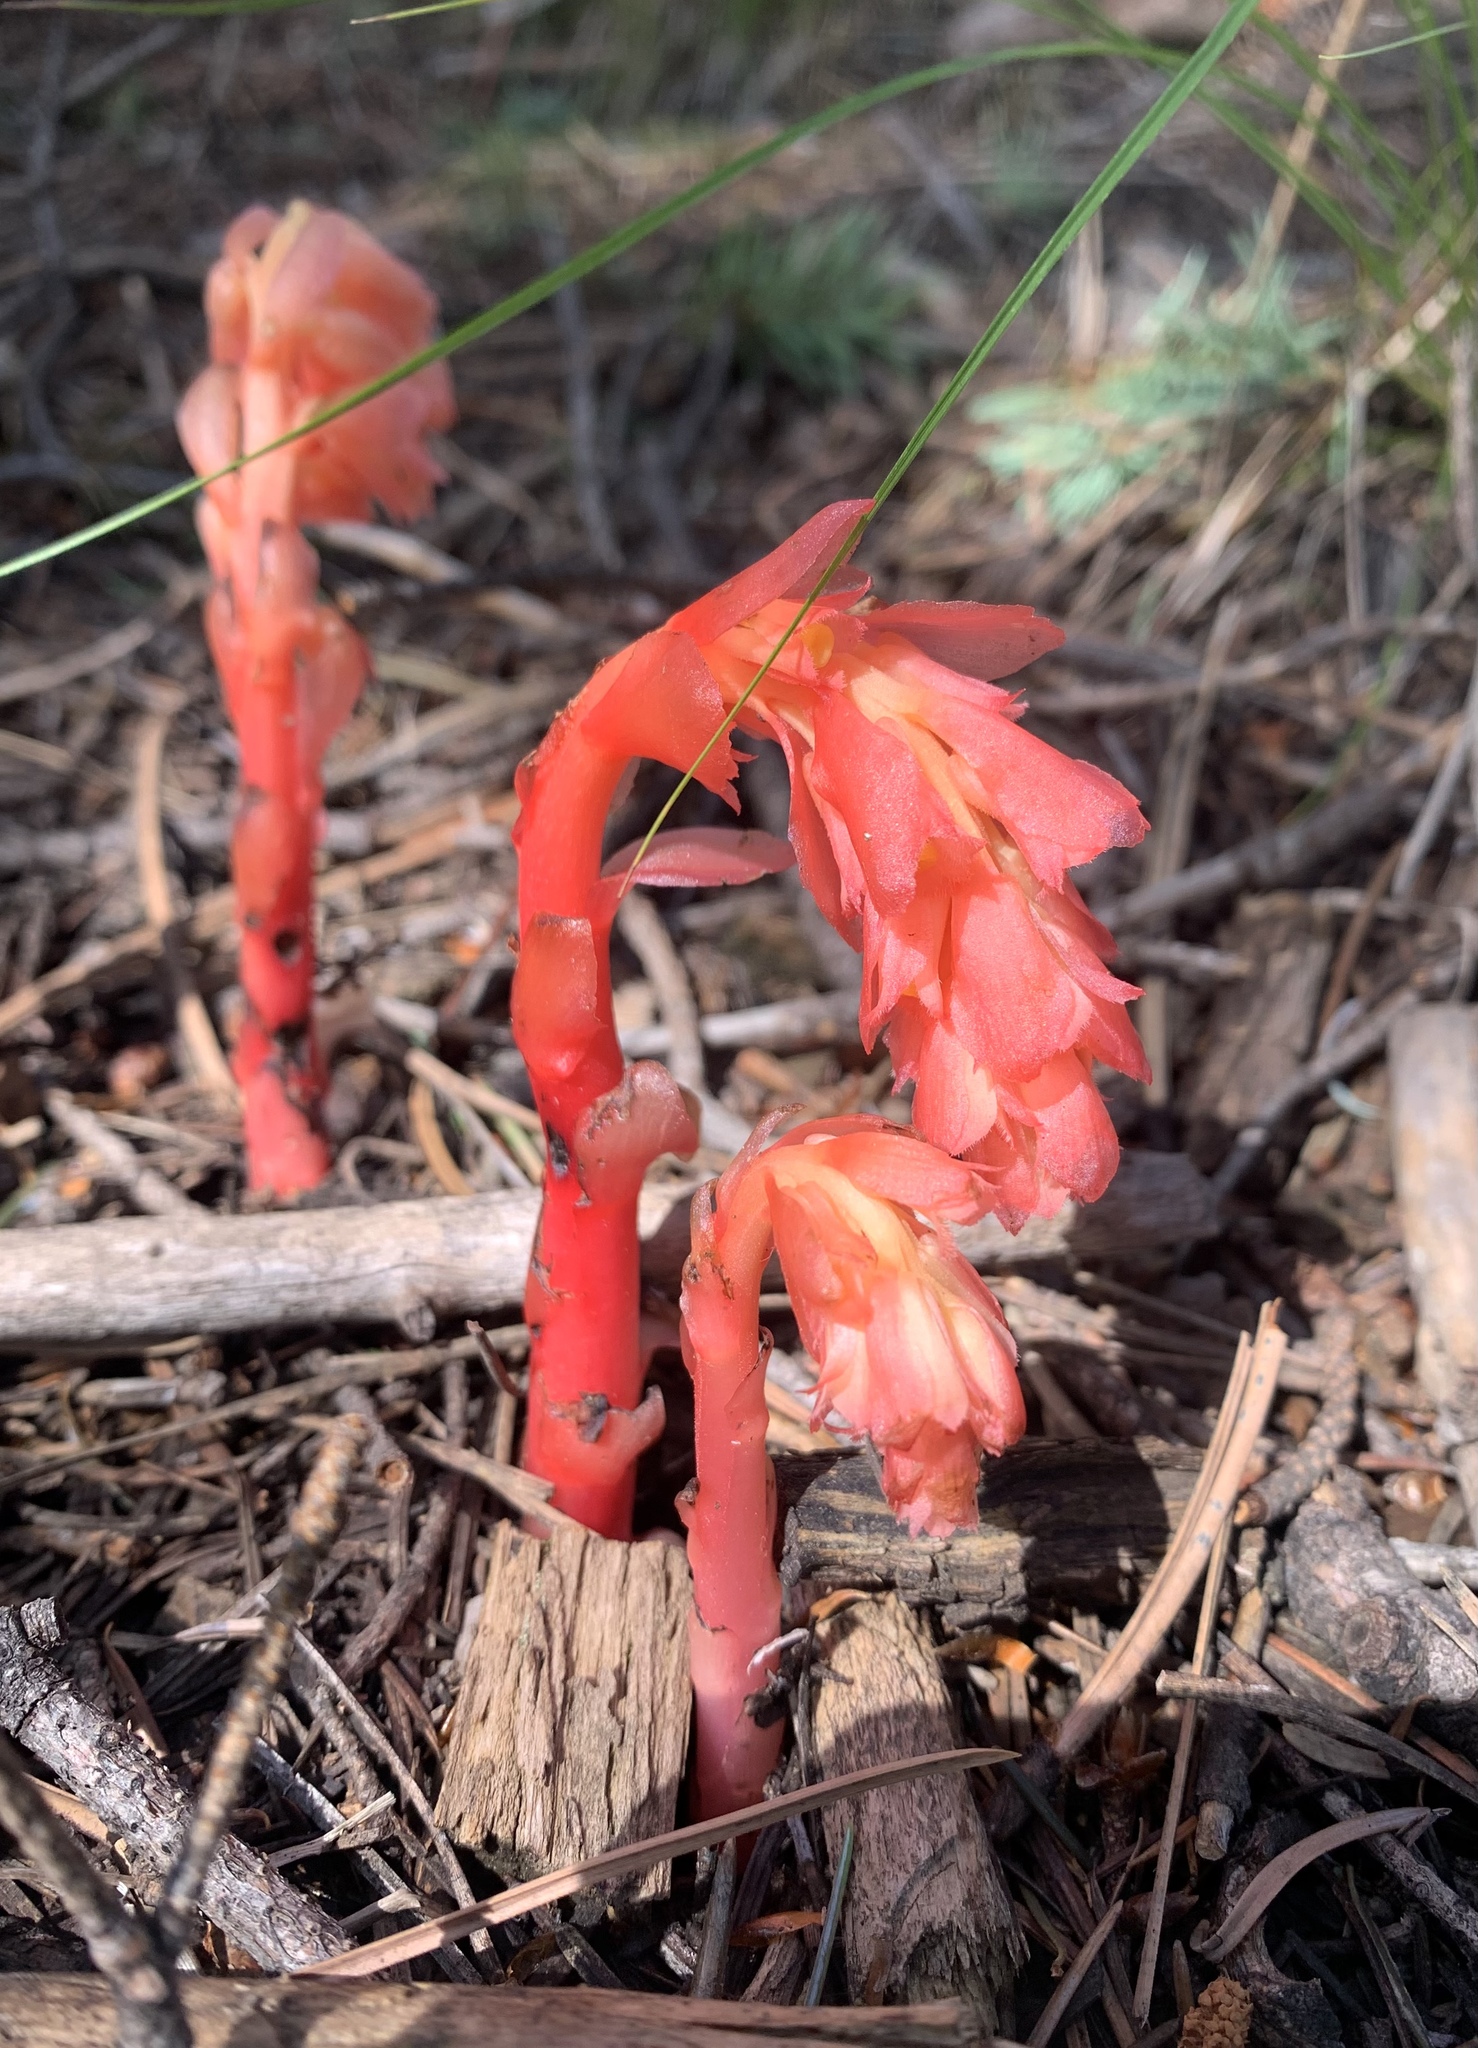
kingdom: Plantae
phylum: Tracheophyta
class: Magnoliopsida
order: Ericales
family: Ericaceae
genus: Hypopitys
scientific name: Hypopitys monotropa
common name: Yellow bird's-nest
